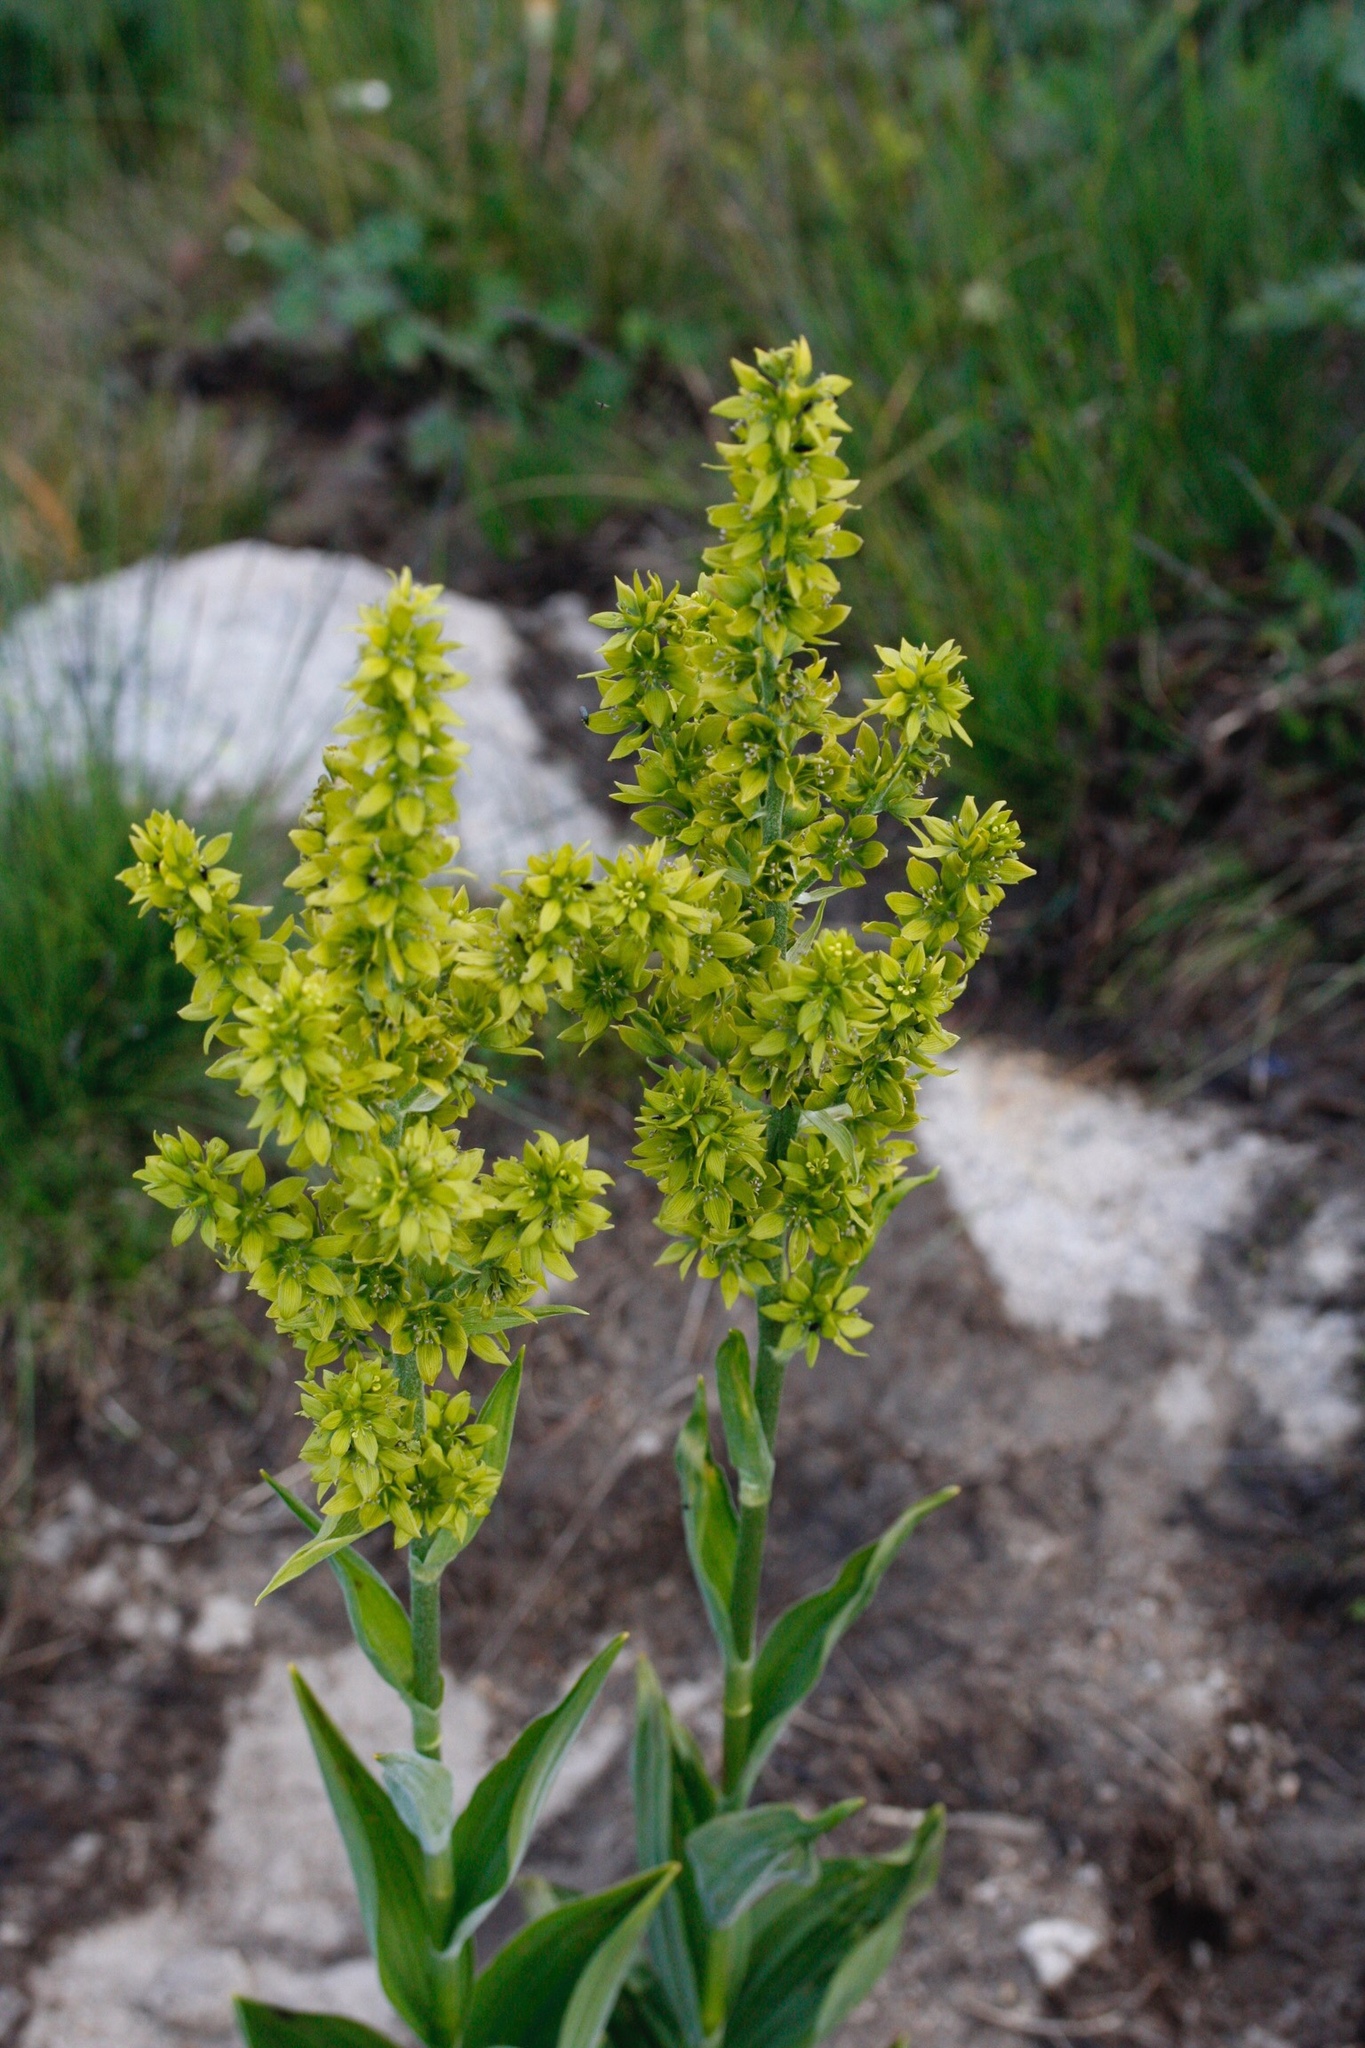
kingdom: Plantae
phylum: Tracheophyta
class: Liliopsida
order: Liliales
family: Melanthiaceae
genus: Veratrum
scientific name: Veratrum album
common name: White veratrum
